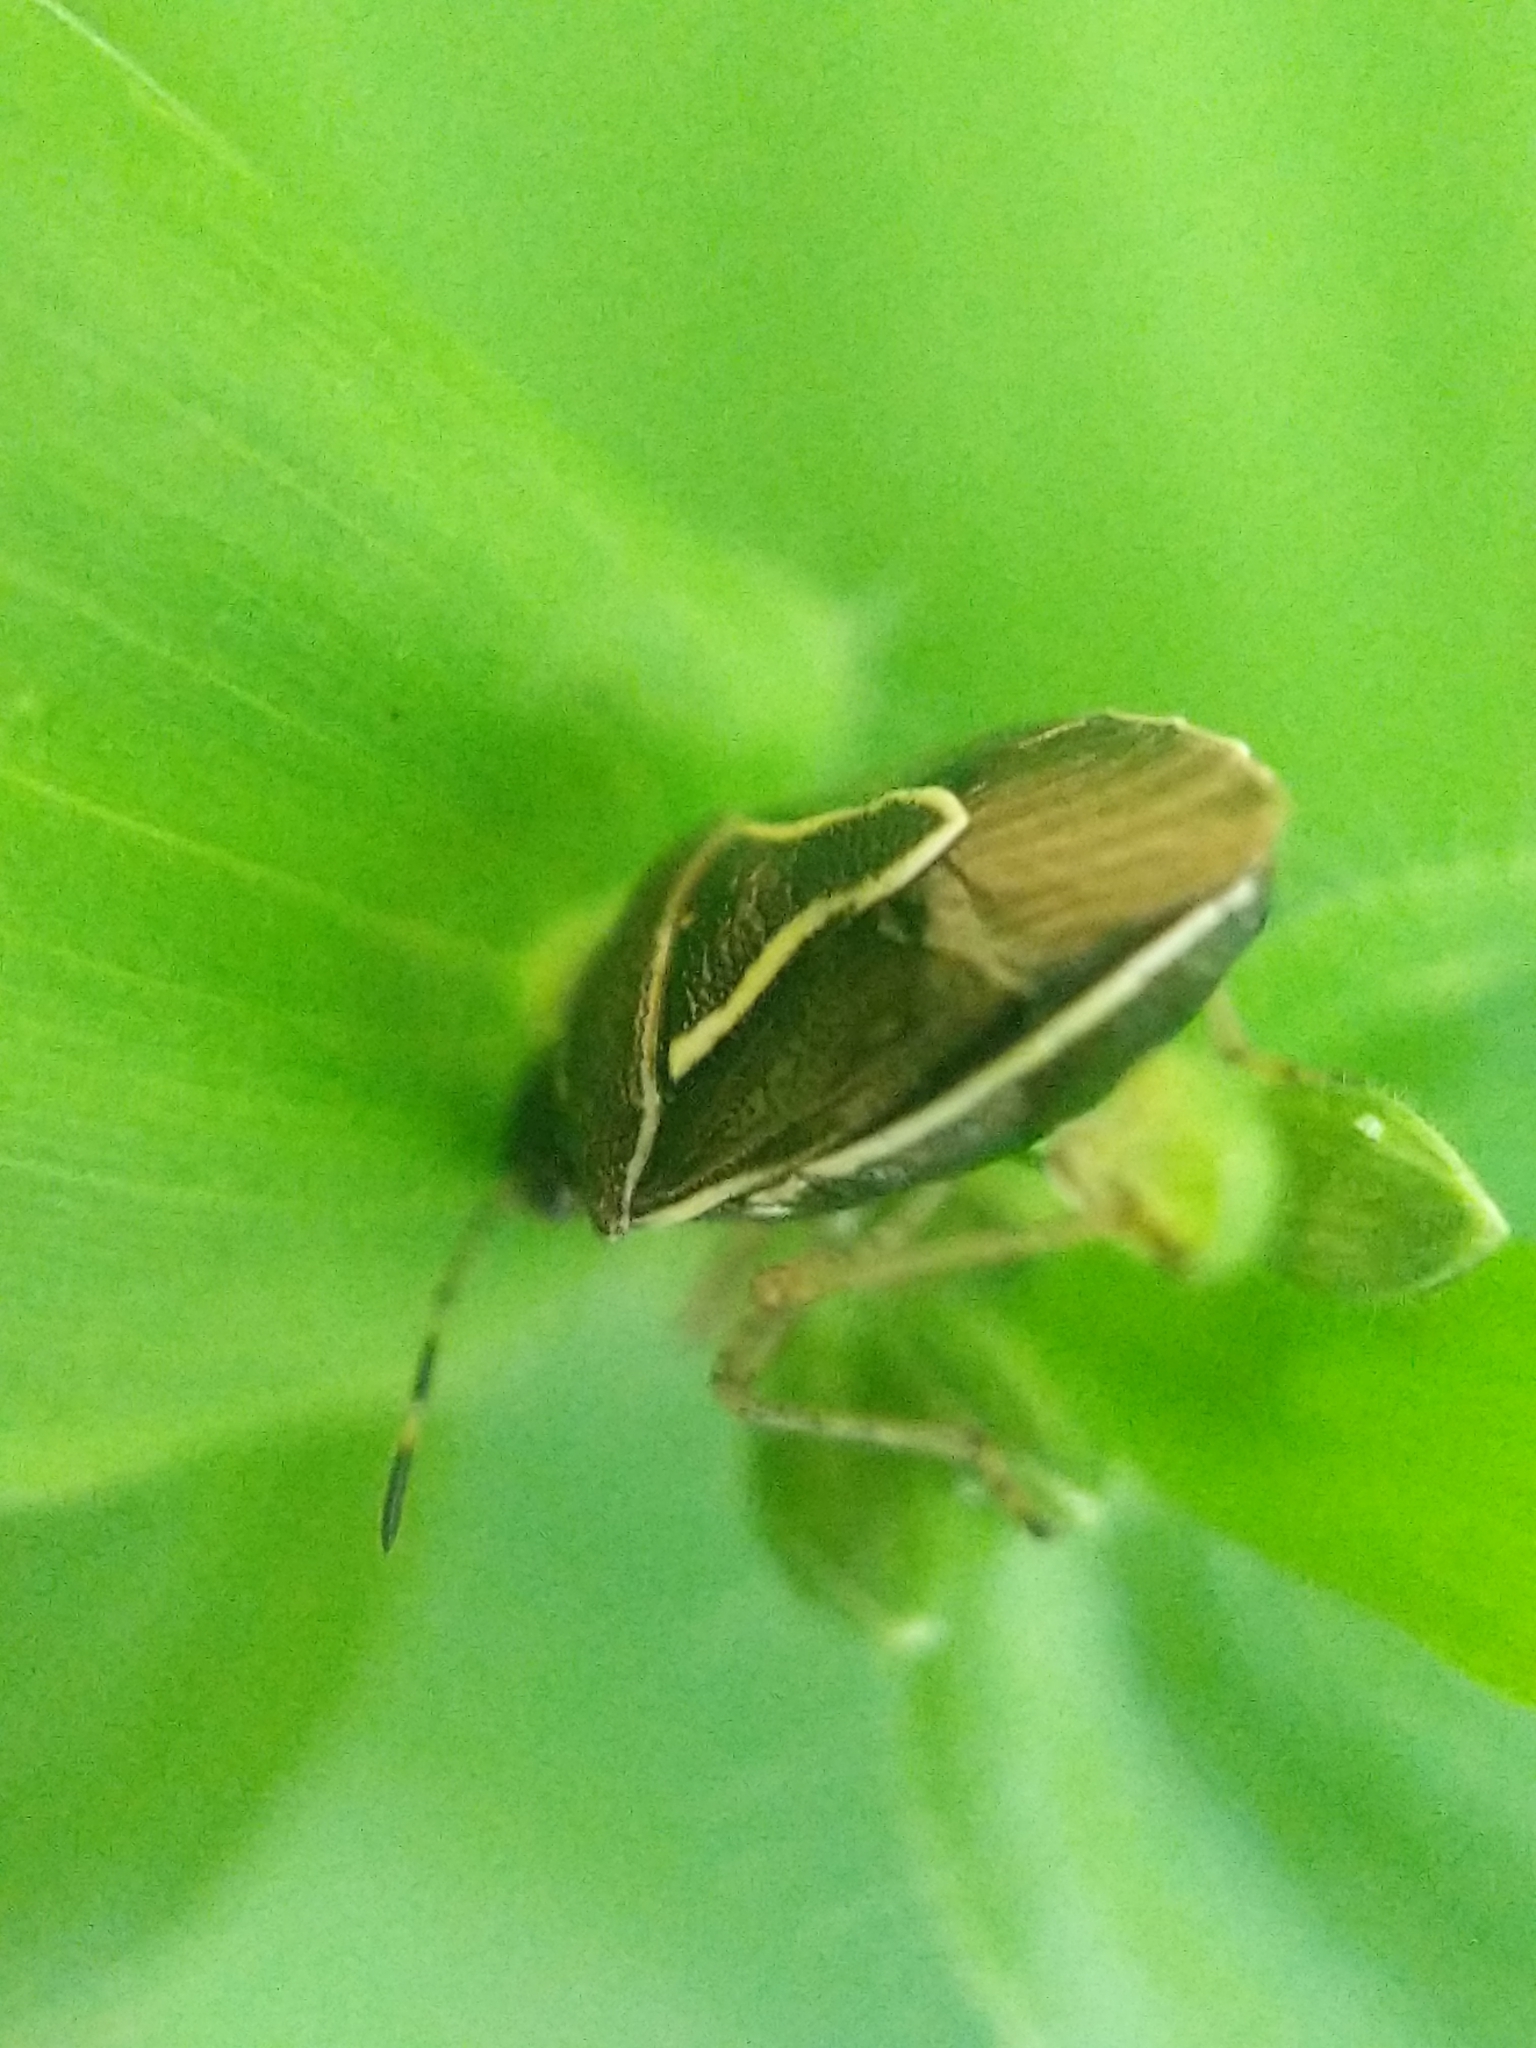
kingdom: Animalia
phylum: Arthropoda
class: Insecta
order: Hemiptera
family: Pentatomidae
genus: Mormidea
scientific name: Mormidea lugens
